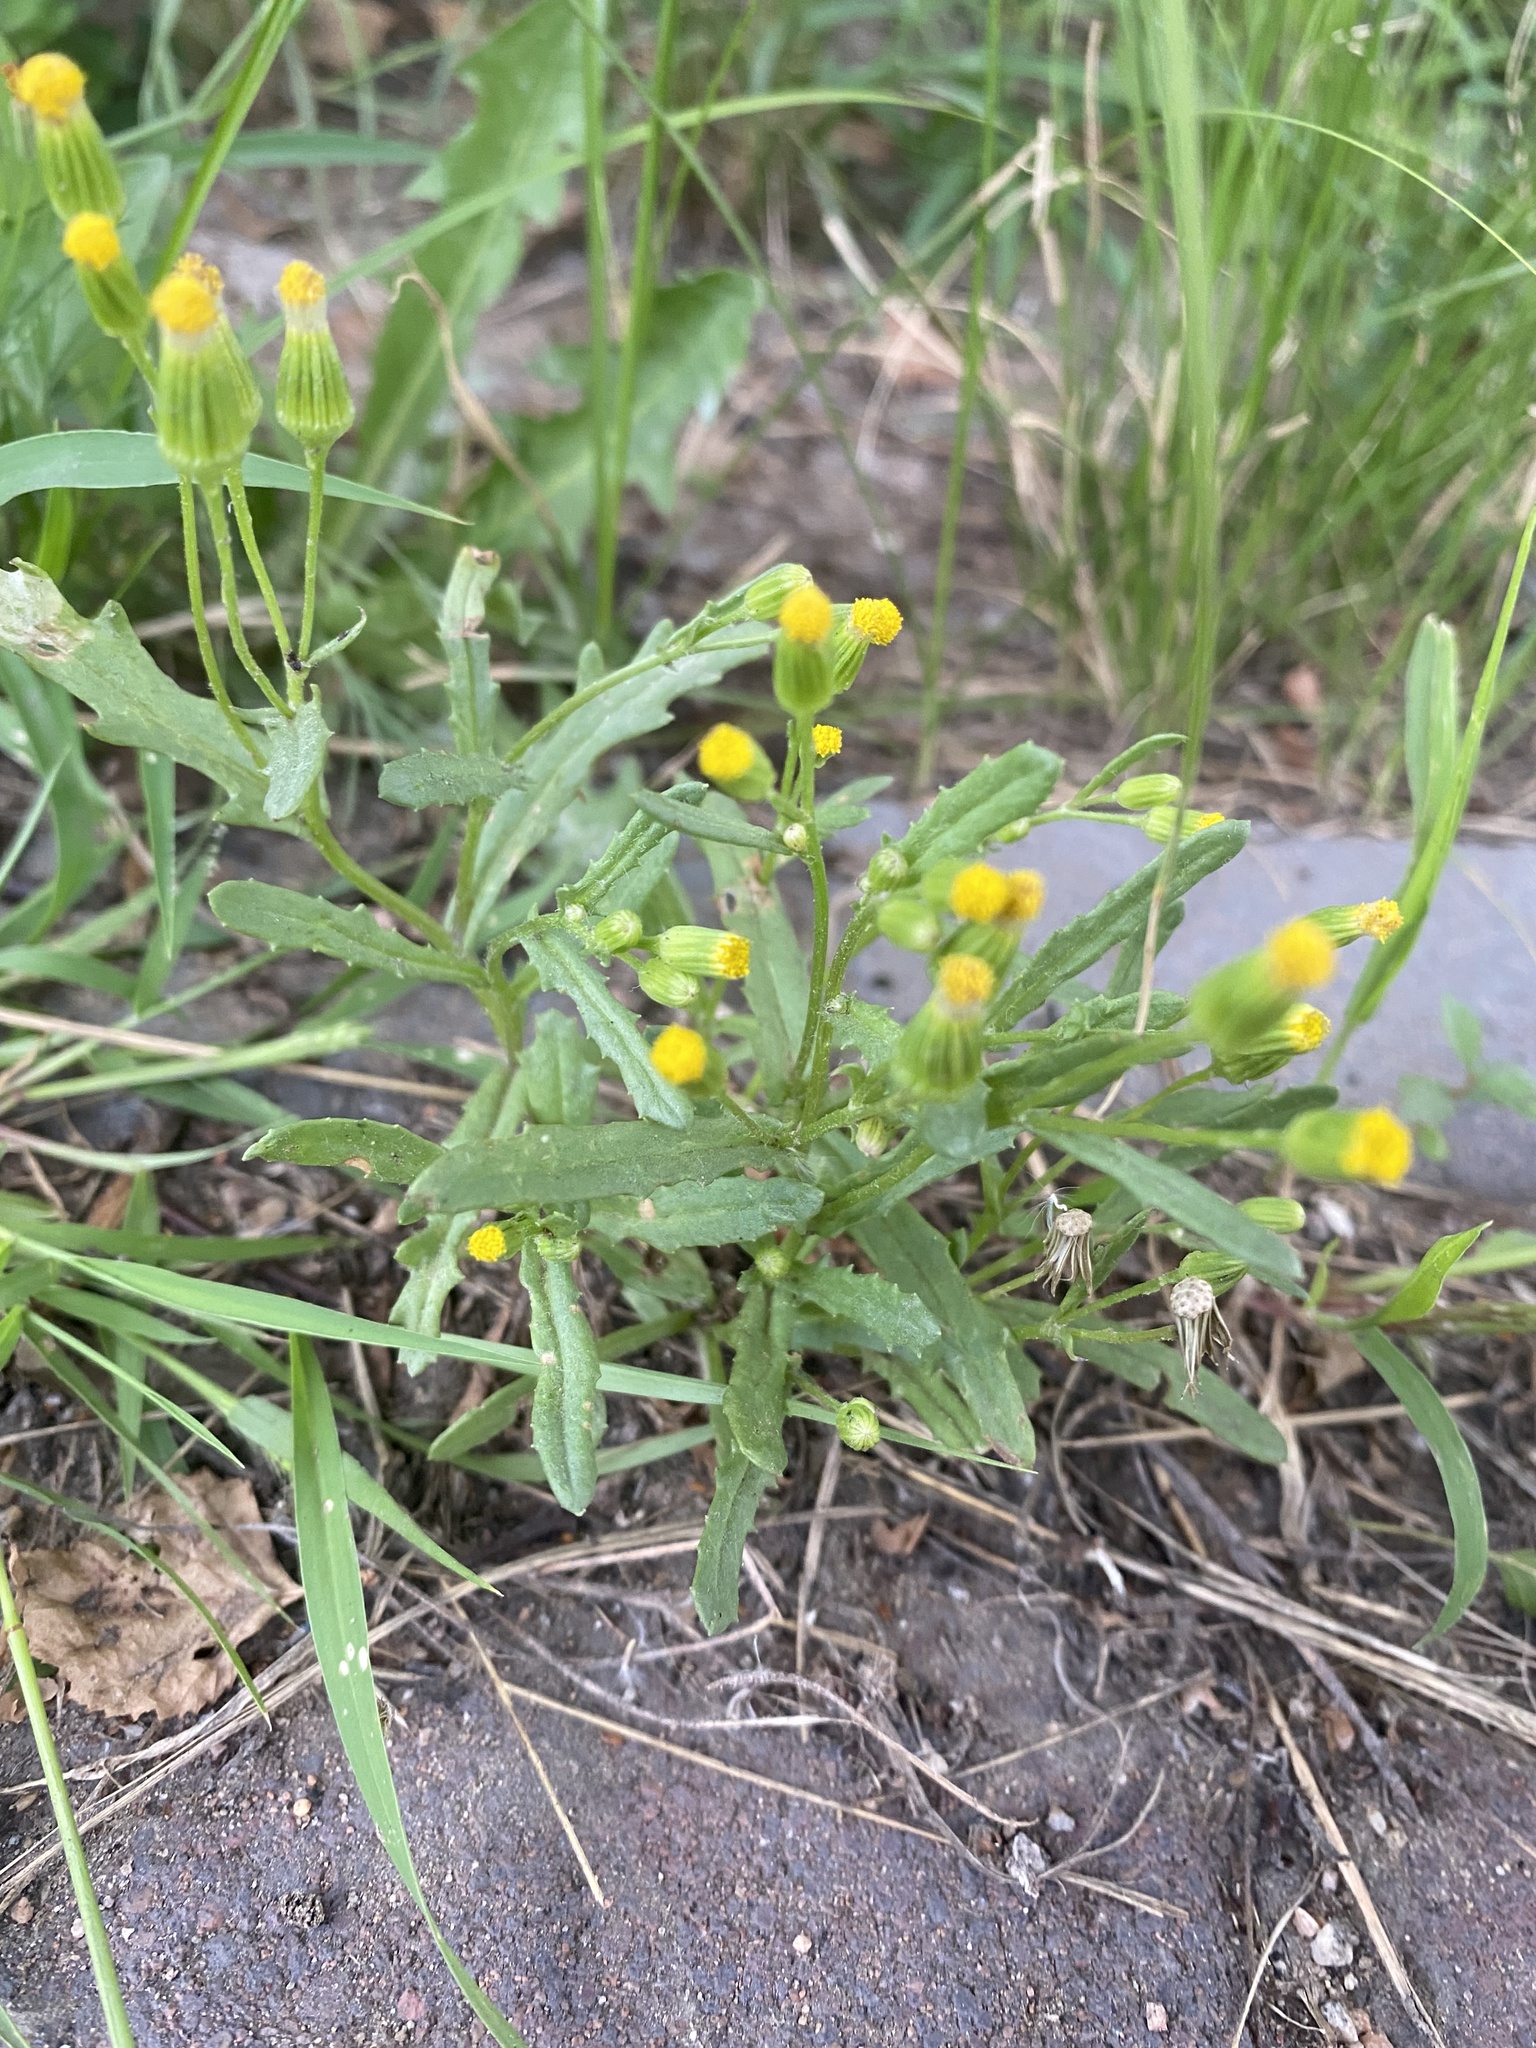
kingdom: Plantae
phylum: Tracheophyta
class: Magnoliopsida
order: Asterales
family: Asteraceae
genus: Senecio
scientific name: Senecio dubitabilis
